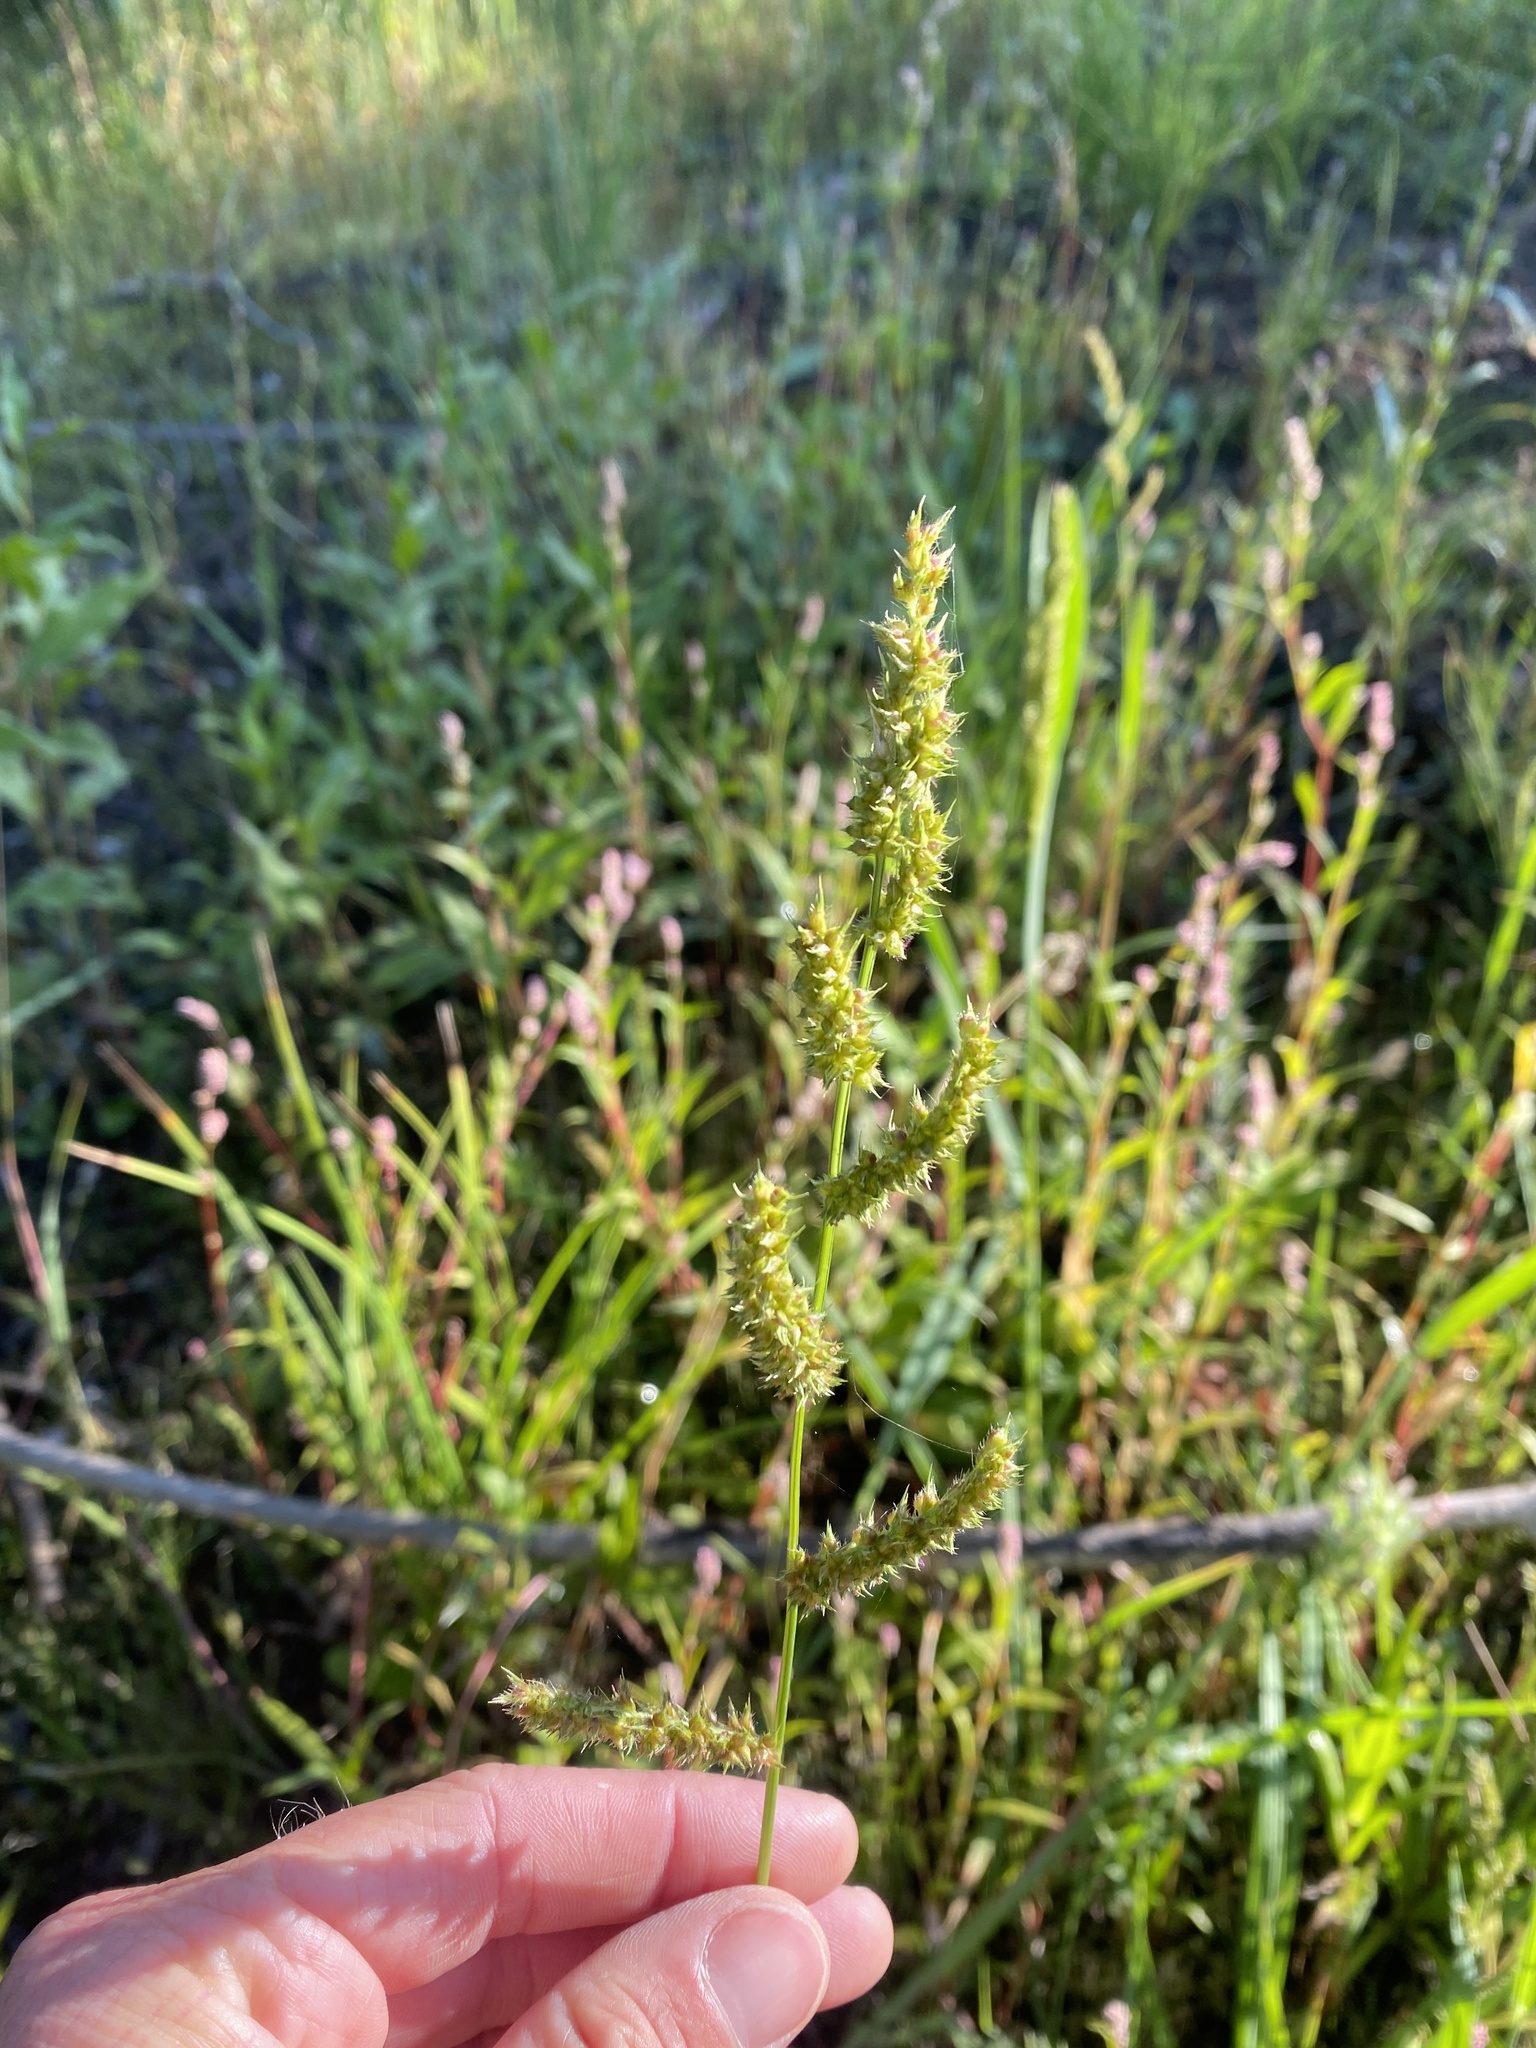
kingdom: Plantae
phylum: Tracheophyta
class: Liliopsida
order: Poales
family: Poaceae
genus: Echinochloa
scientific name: Echinochloa crus-galli
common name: Cockspur
